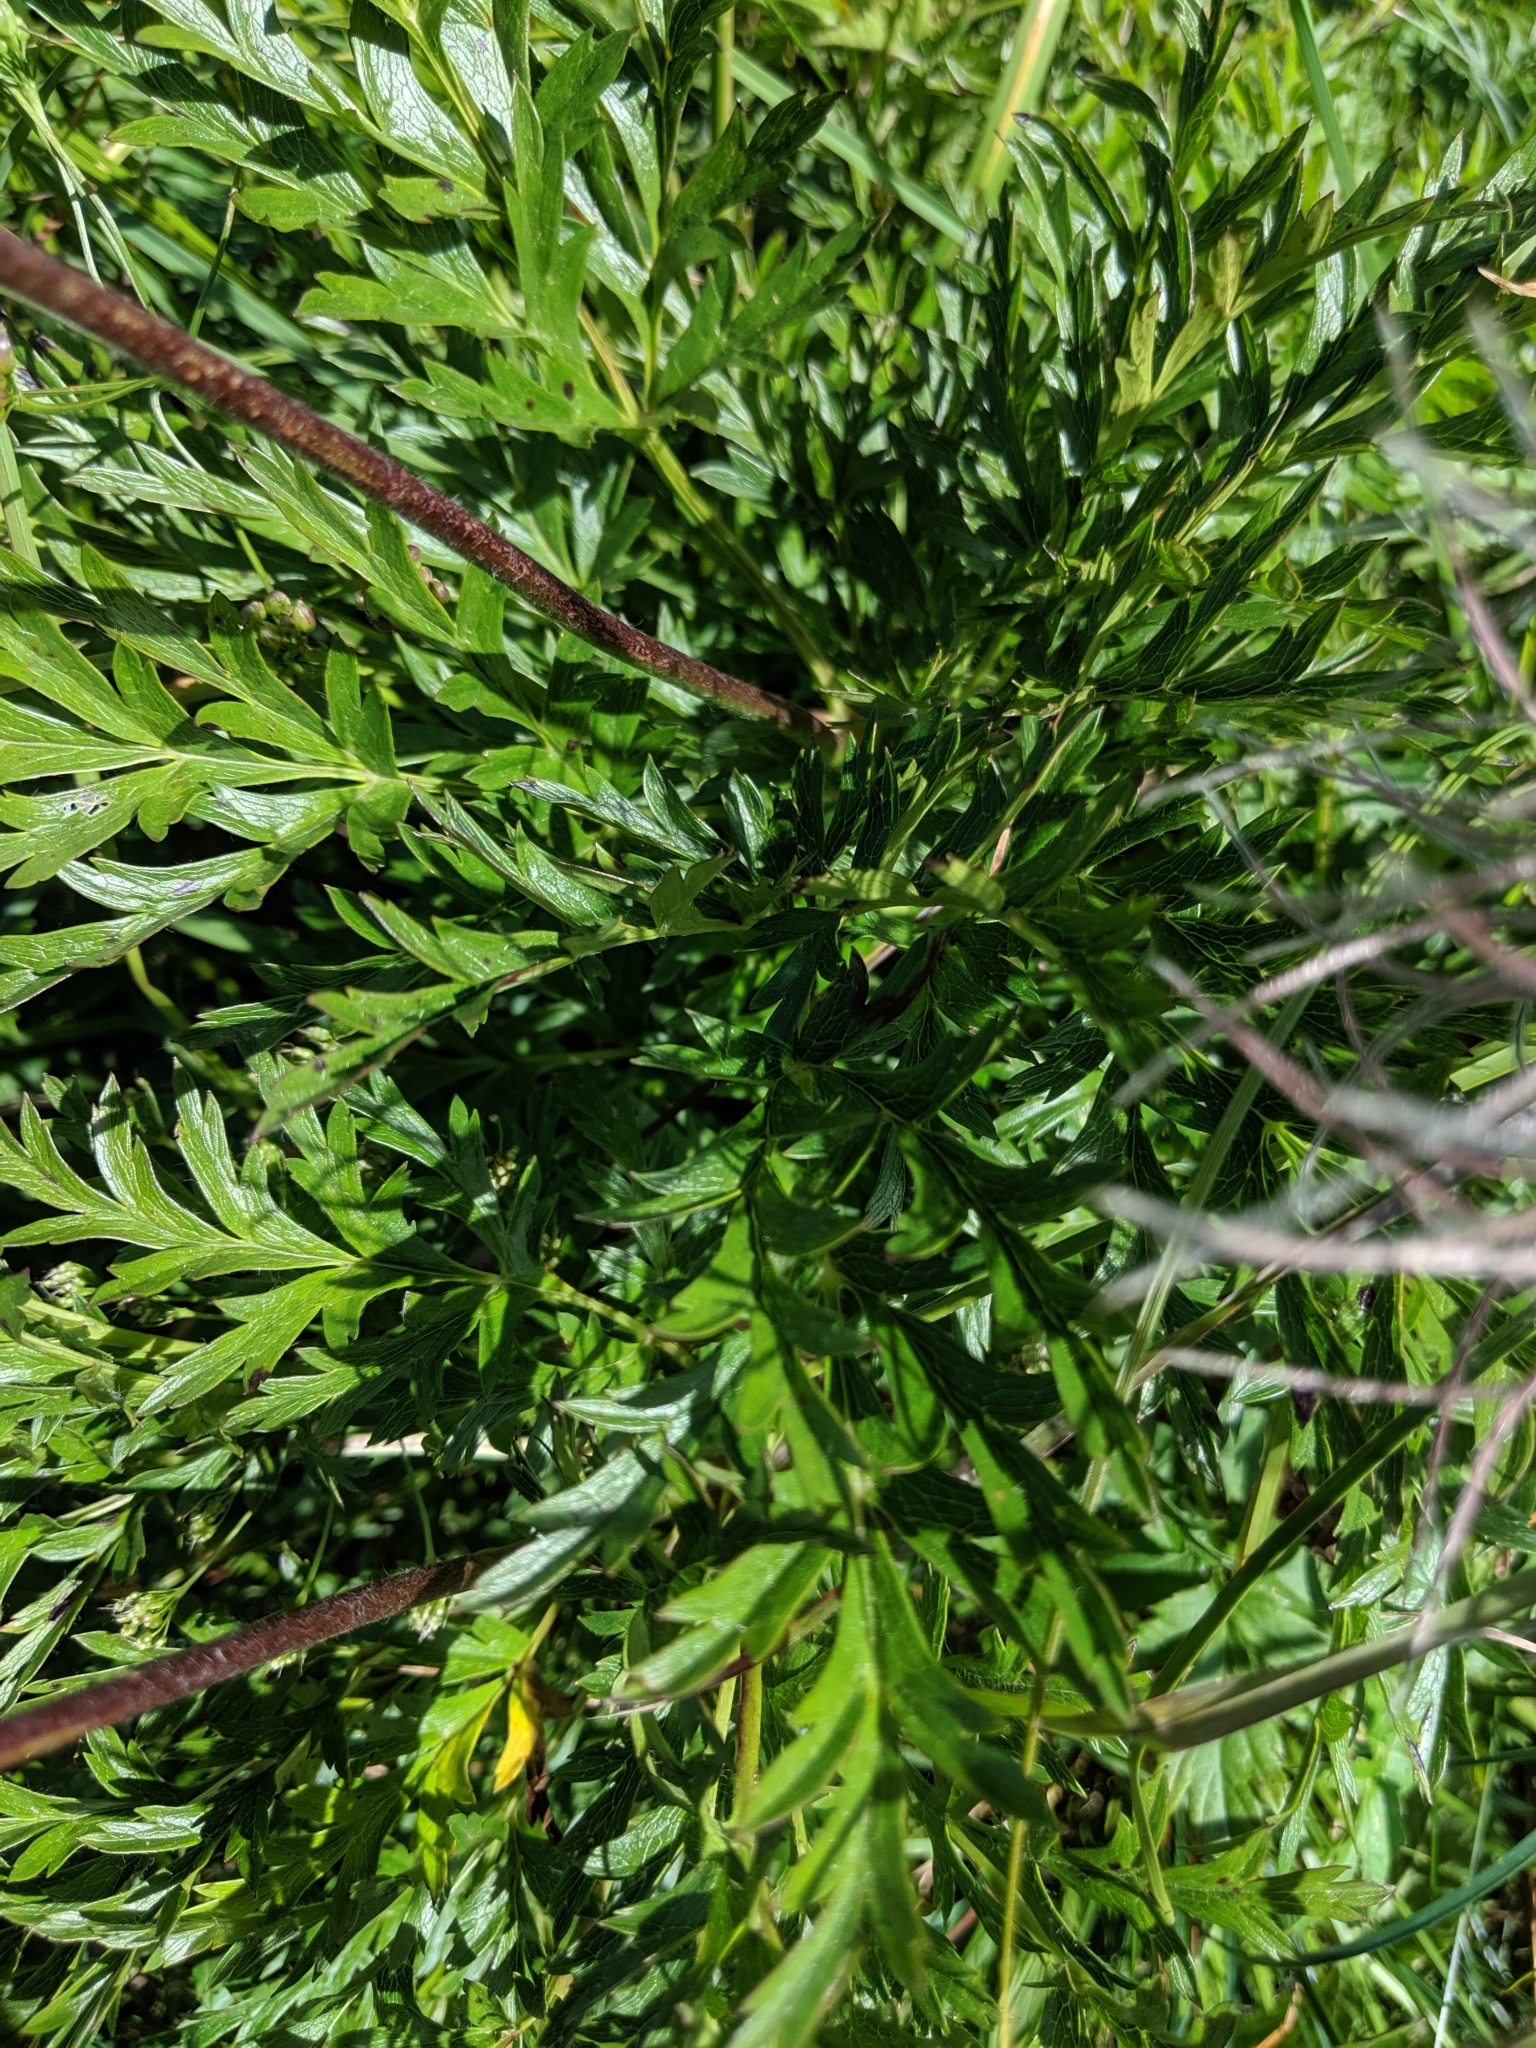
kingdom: Plantae
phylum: Tracheophyta
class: Magnoliopsida
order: Ranunculales
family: Ranunculaceae
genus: Pulsatilla
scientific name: Pulsatilla alpina
